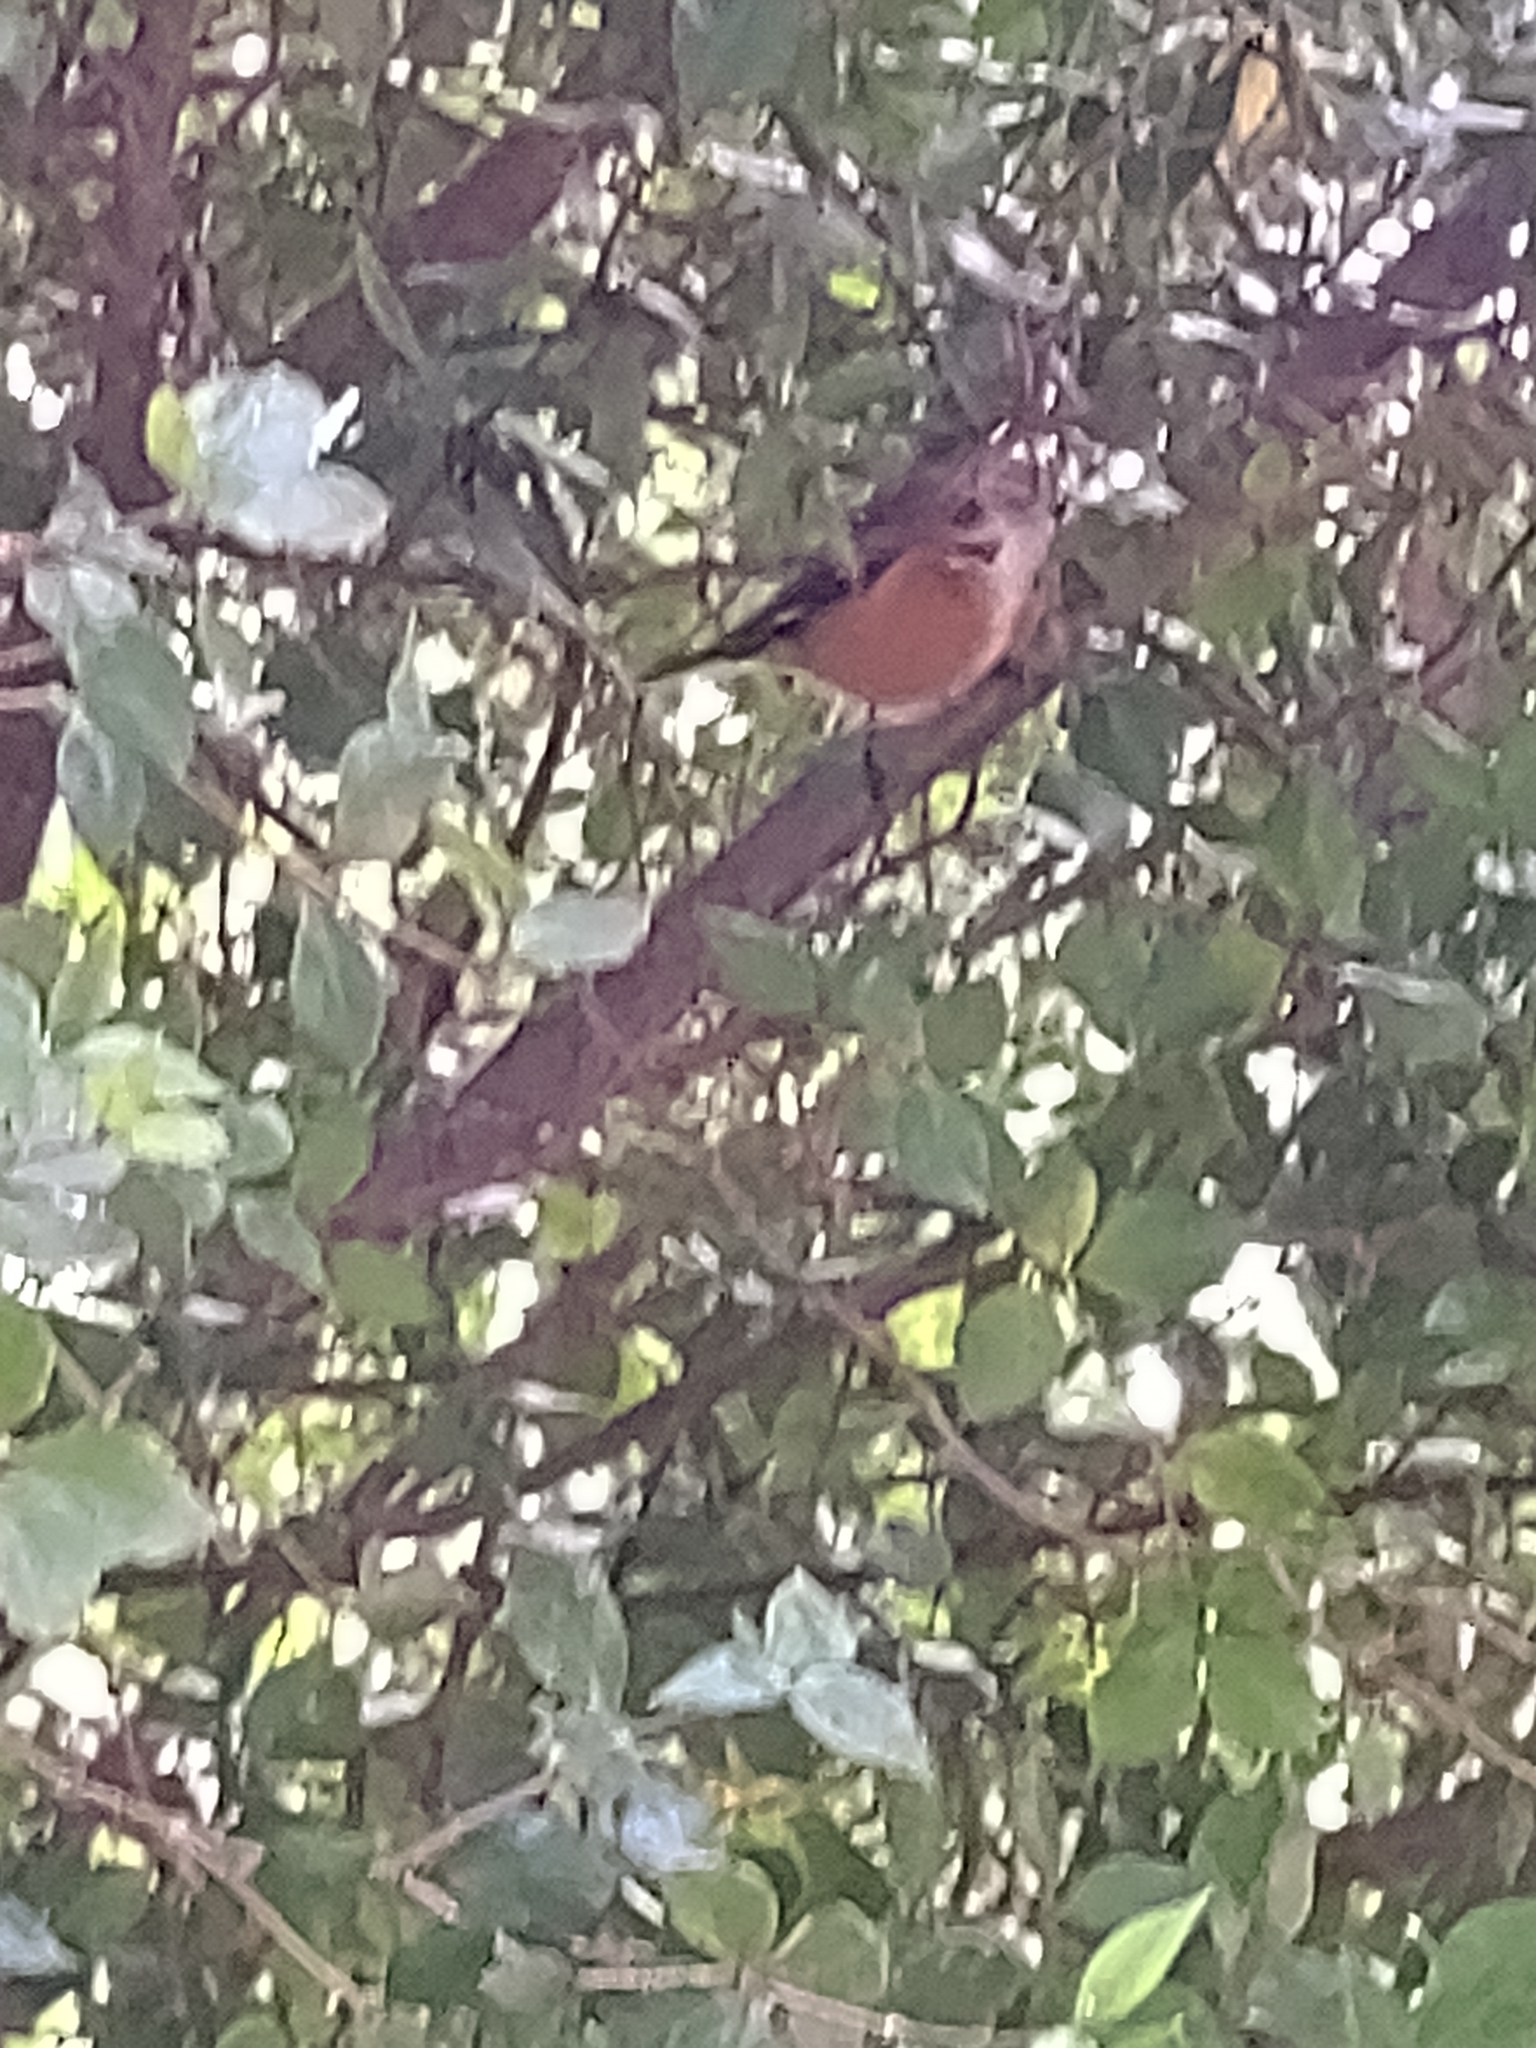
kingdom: Animalia
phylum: Chordata
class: Aves
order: Passeriformes
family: Meliphagidae
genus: Acanthorhynchus
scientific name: Acanthorhynchus tenuirostris
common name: Eastern spinebill
